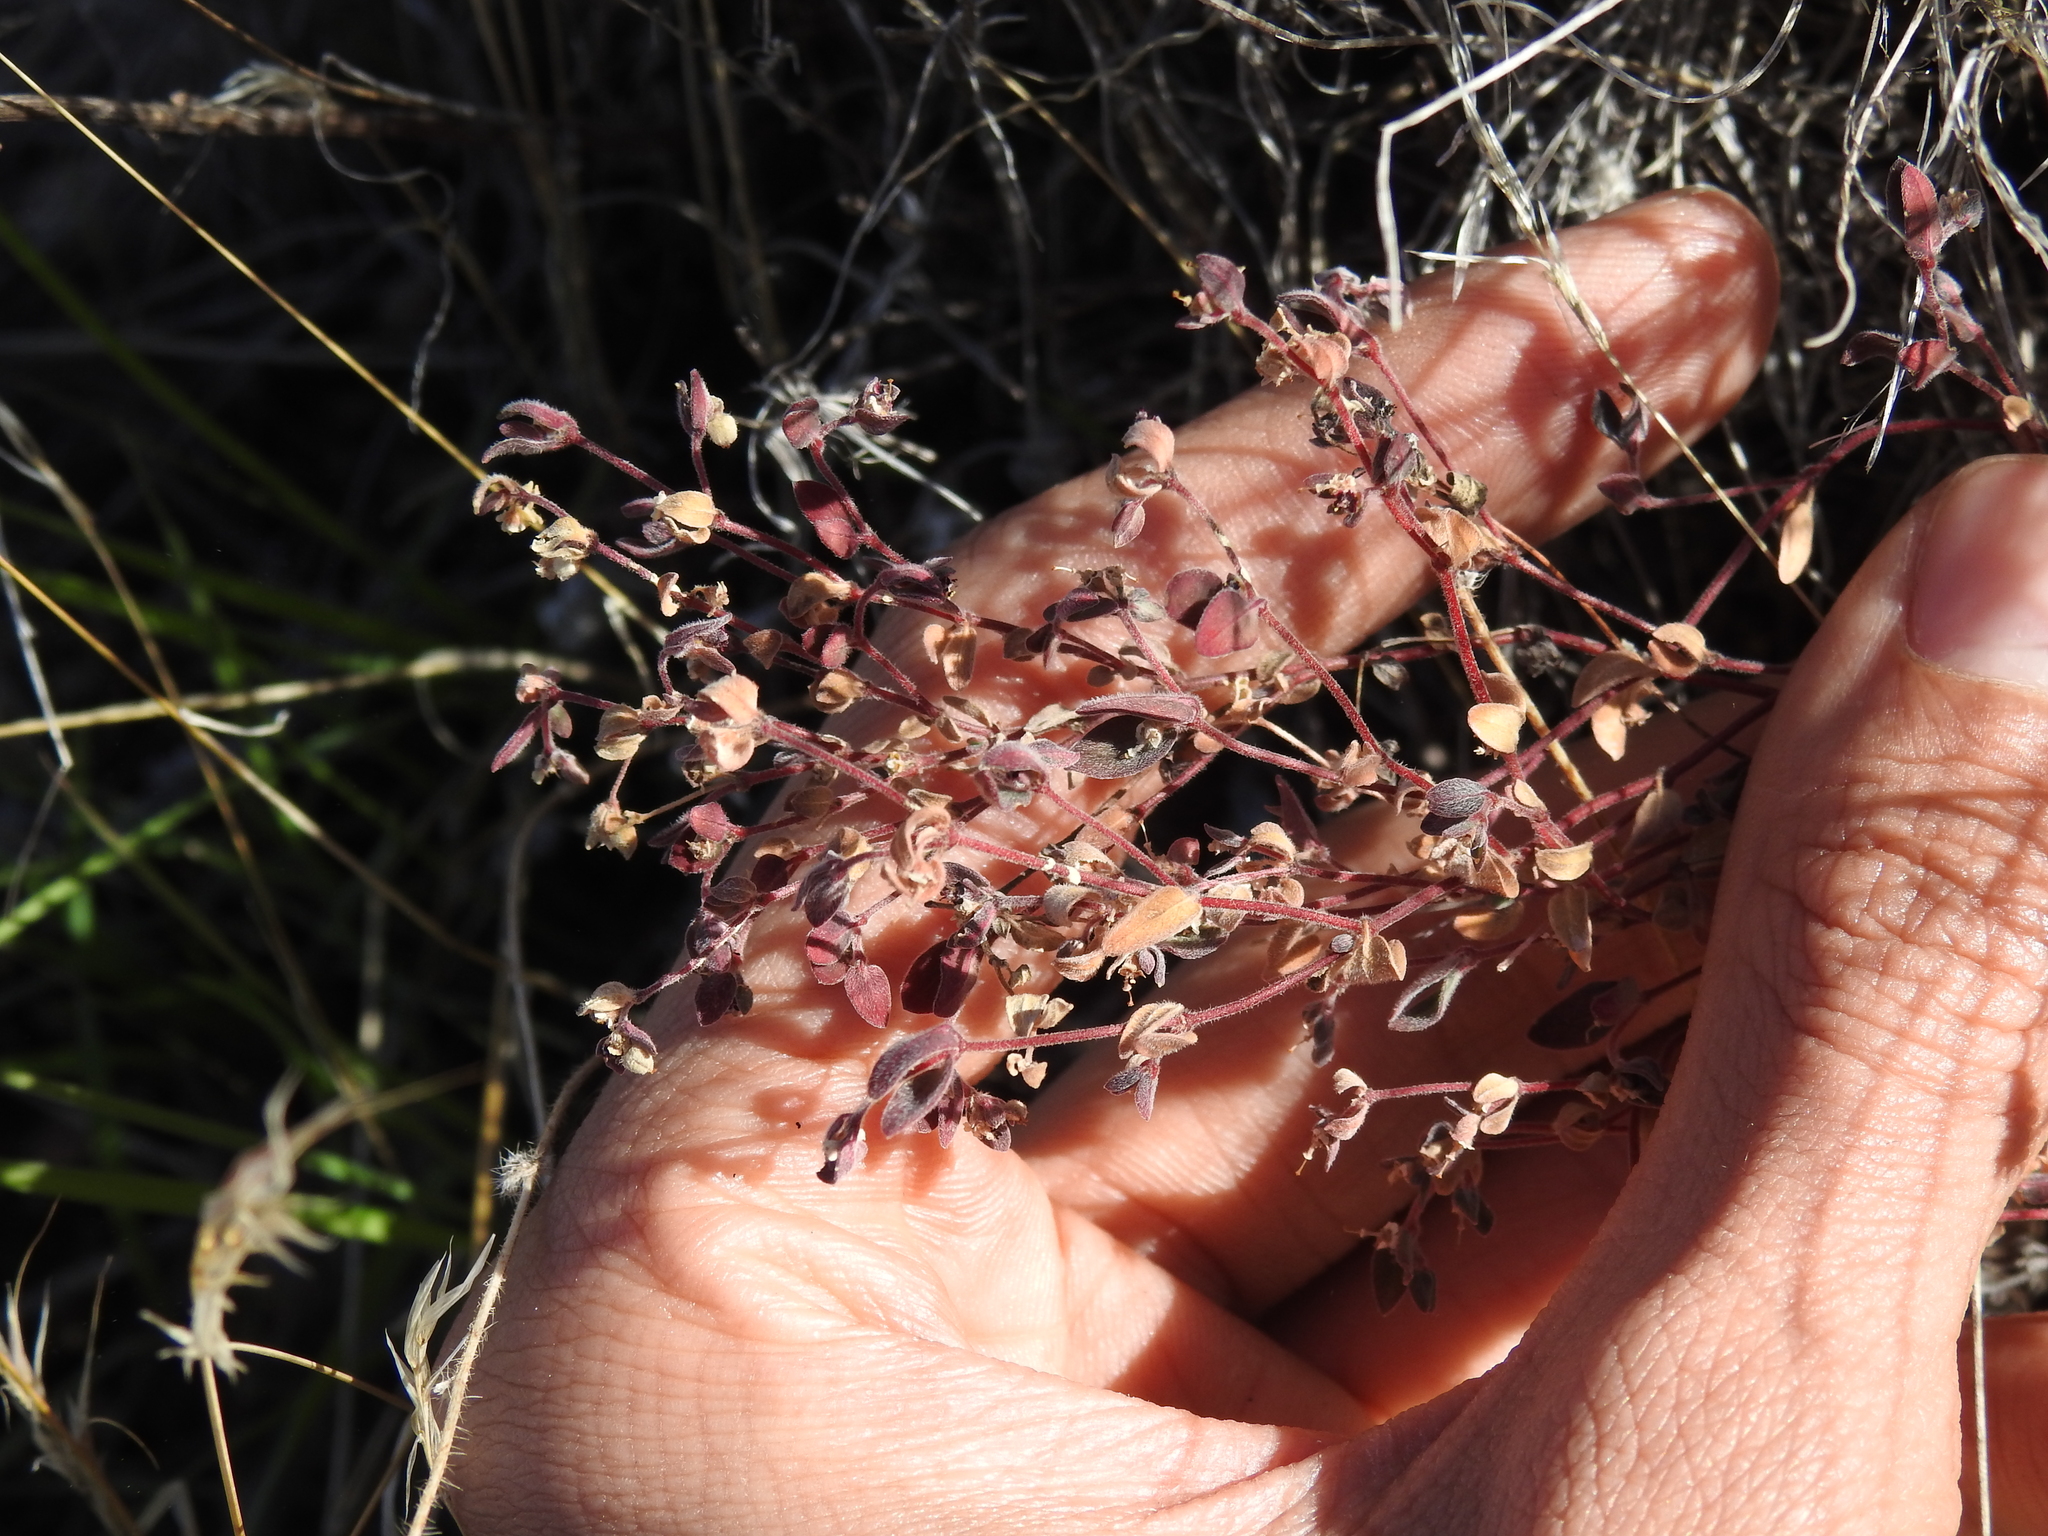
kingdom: Plantae
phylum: Tracheophyta
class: Magnoliopsida
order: Malpighiales
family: Euphorbiaceae
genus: Euphorbia
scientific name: Euphorbia melanadenia
